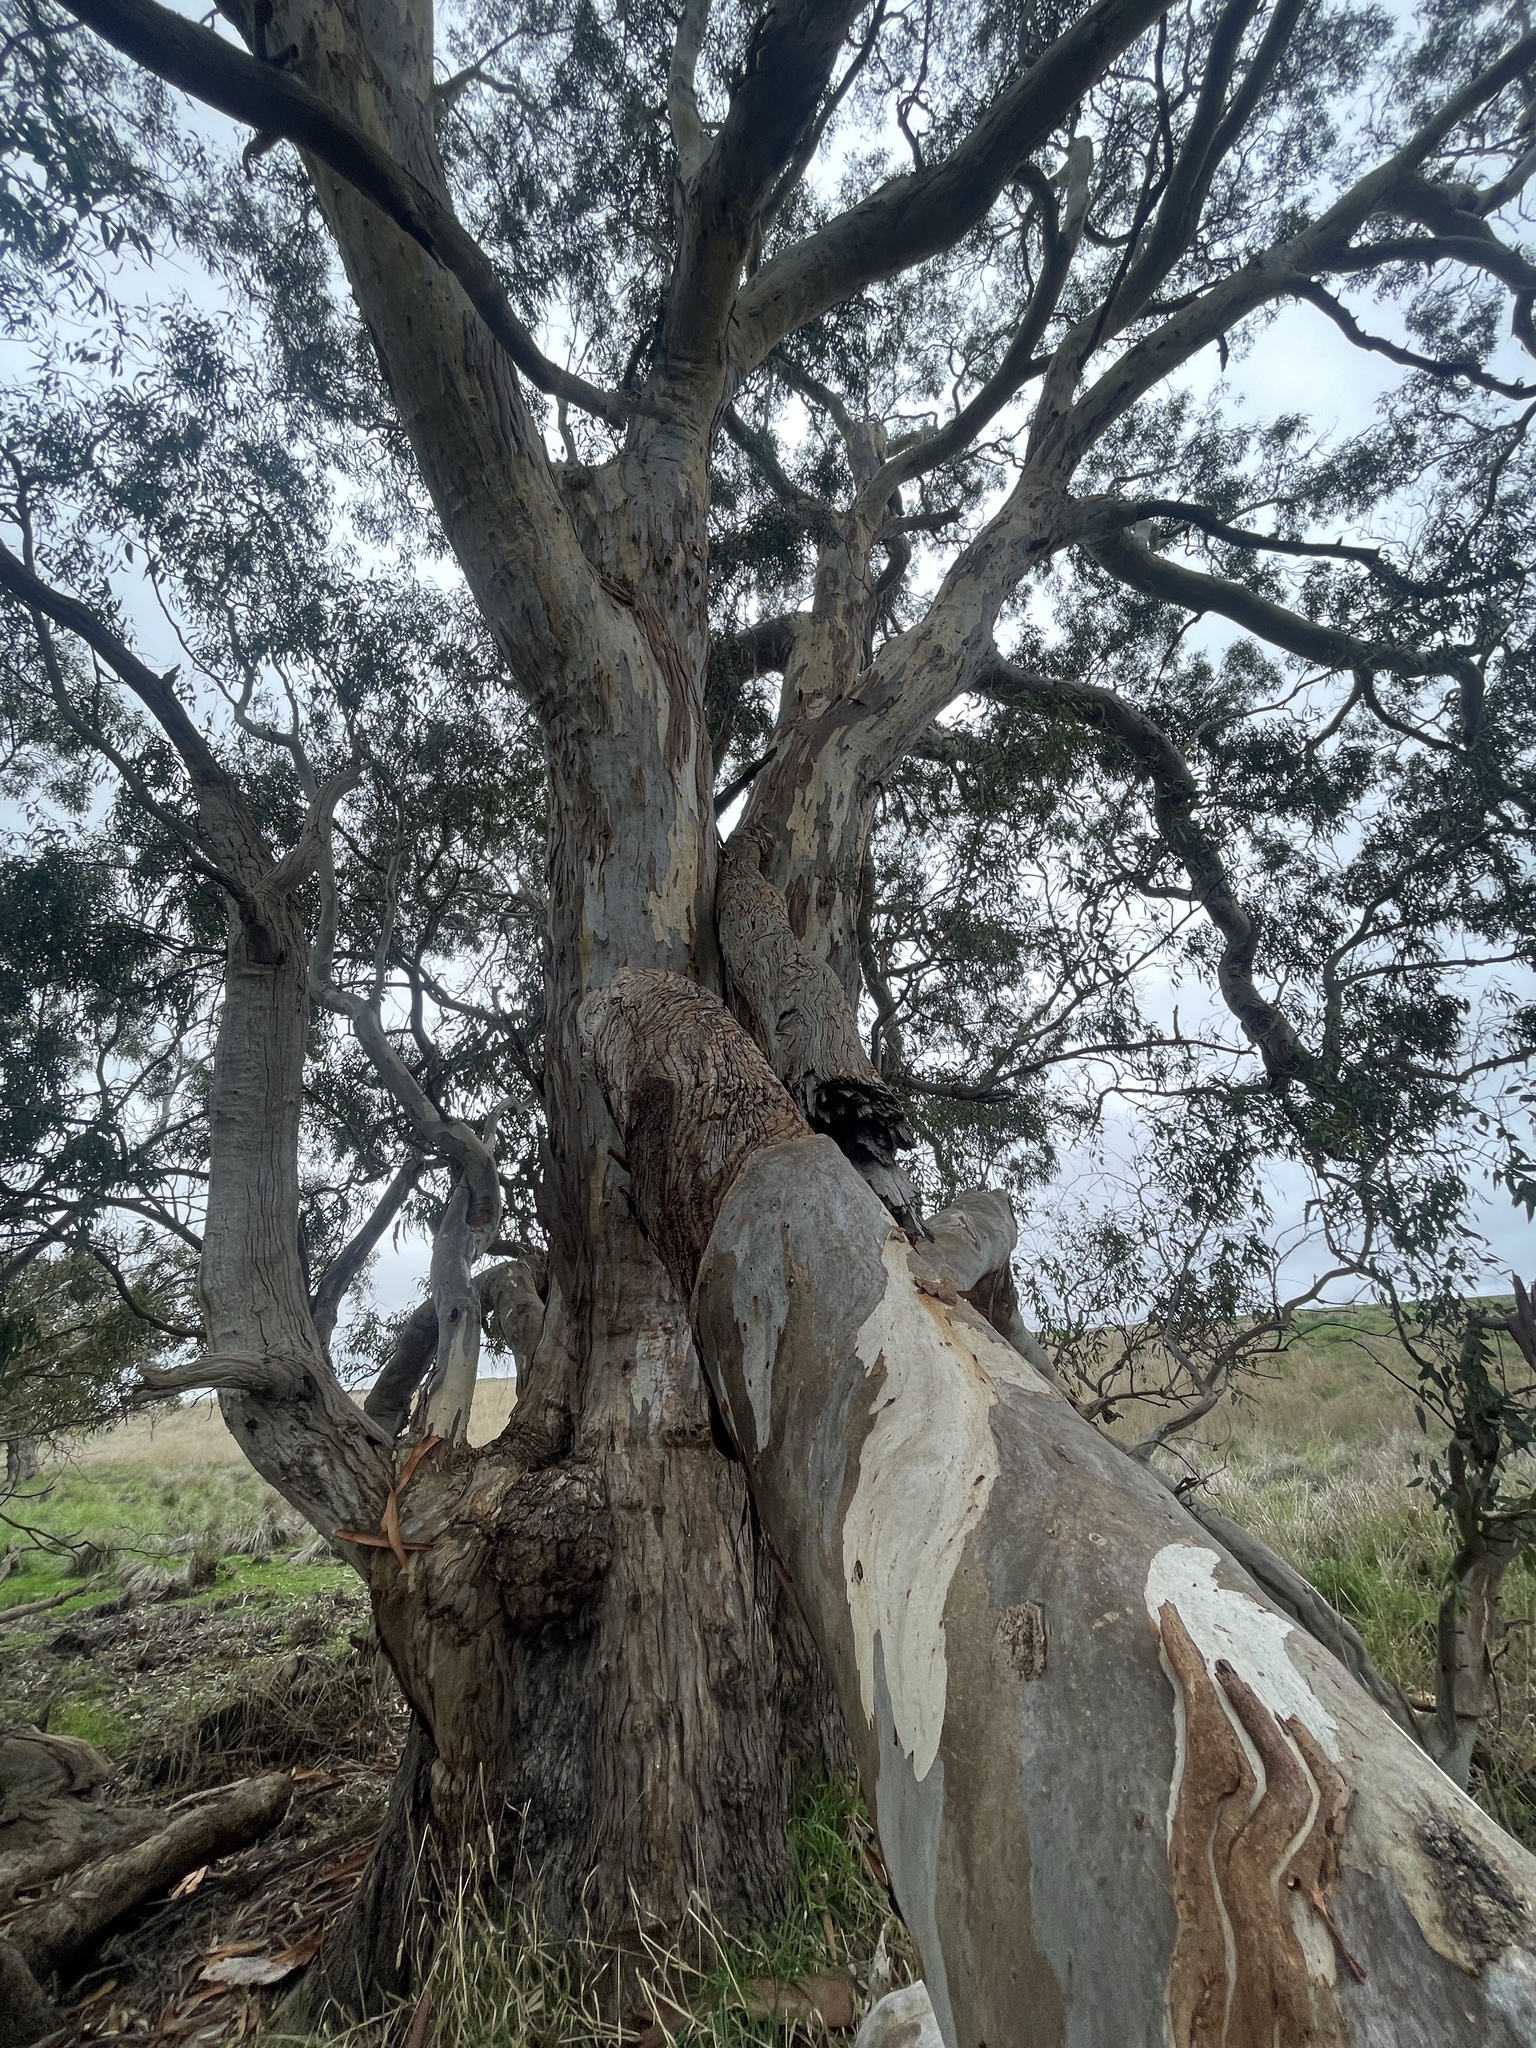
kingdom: Plantae
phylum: Tracheophyta
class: Magnoliopsida
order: Myrtales
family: Myrtaceae
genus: Eucalyptus
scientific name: Eucalyptus camaldulensis
